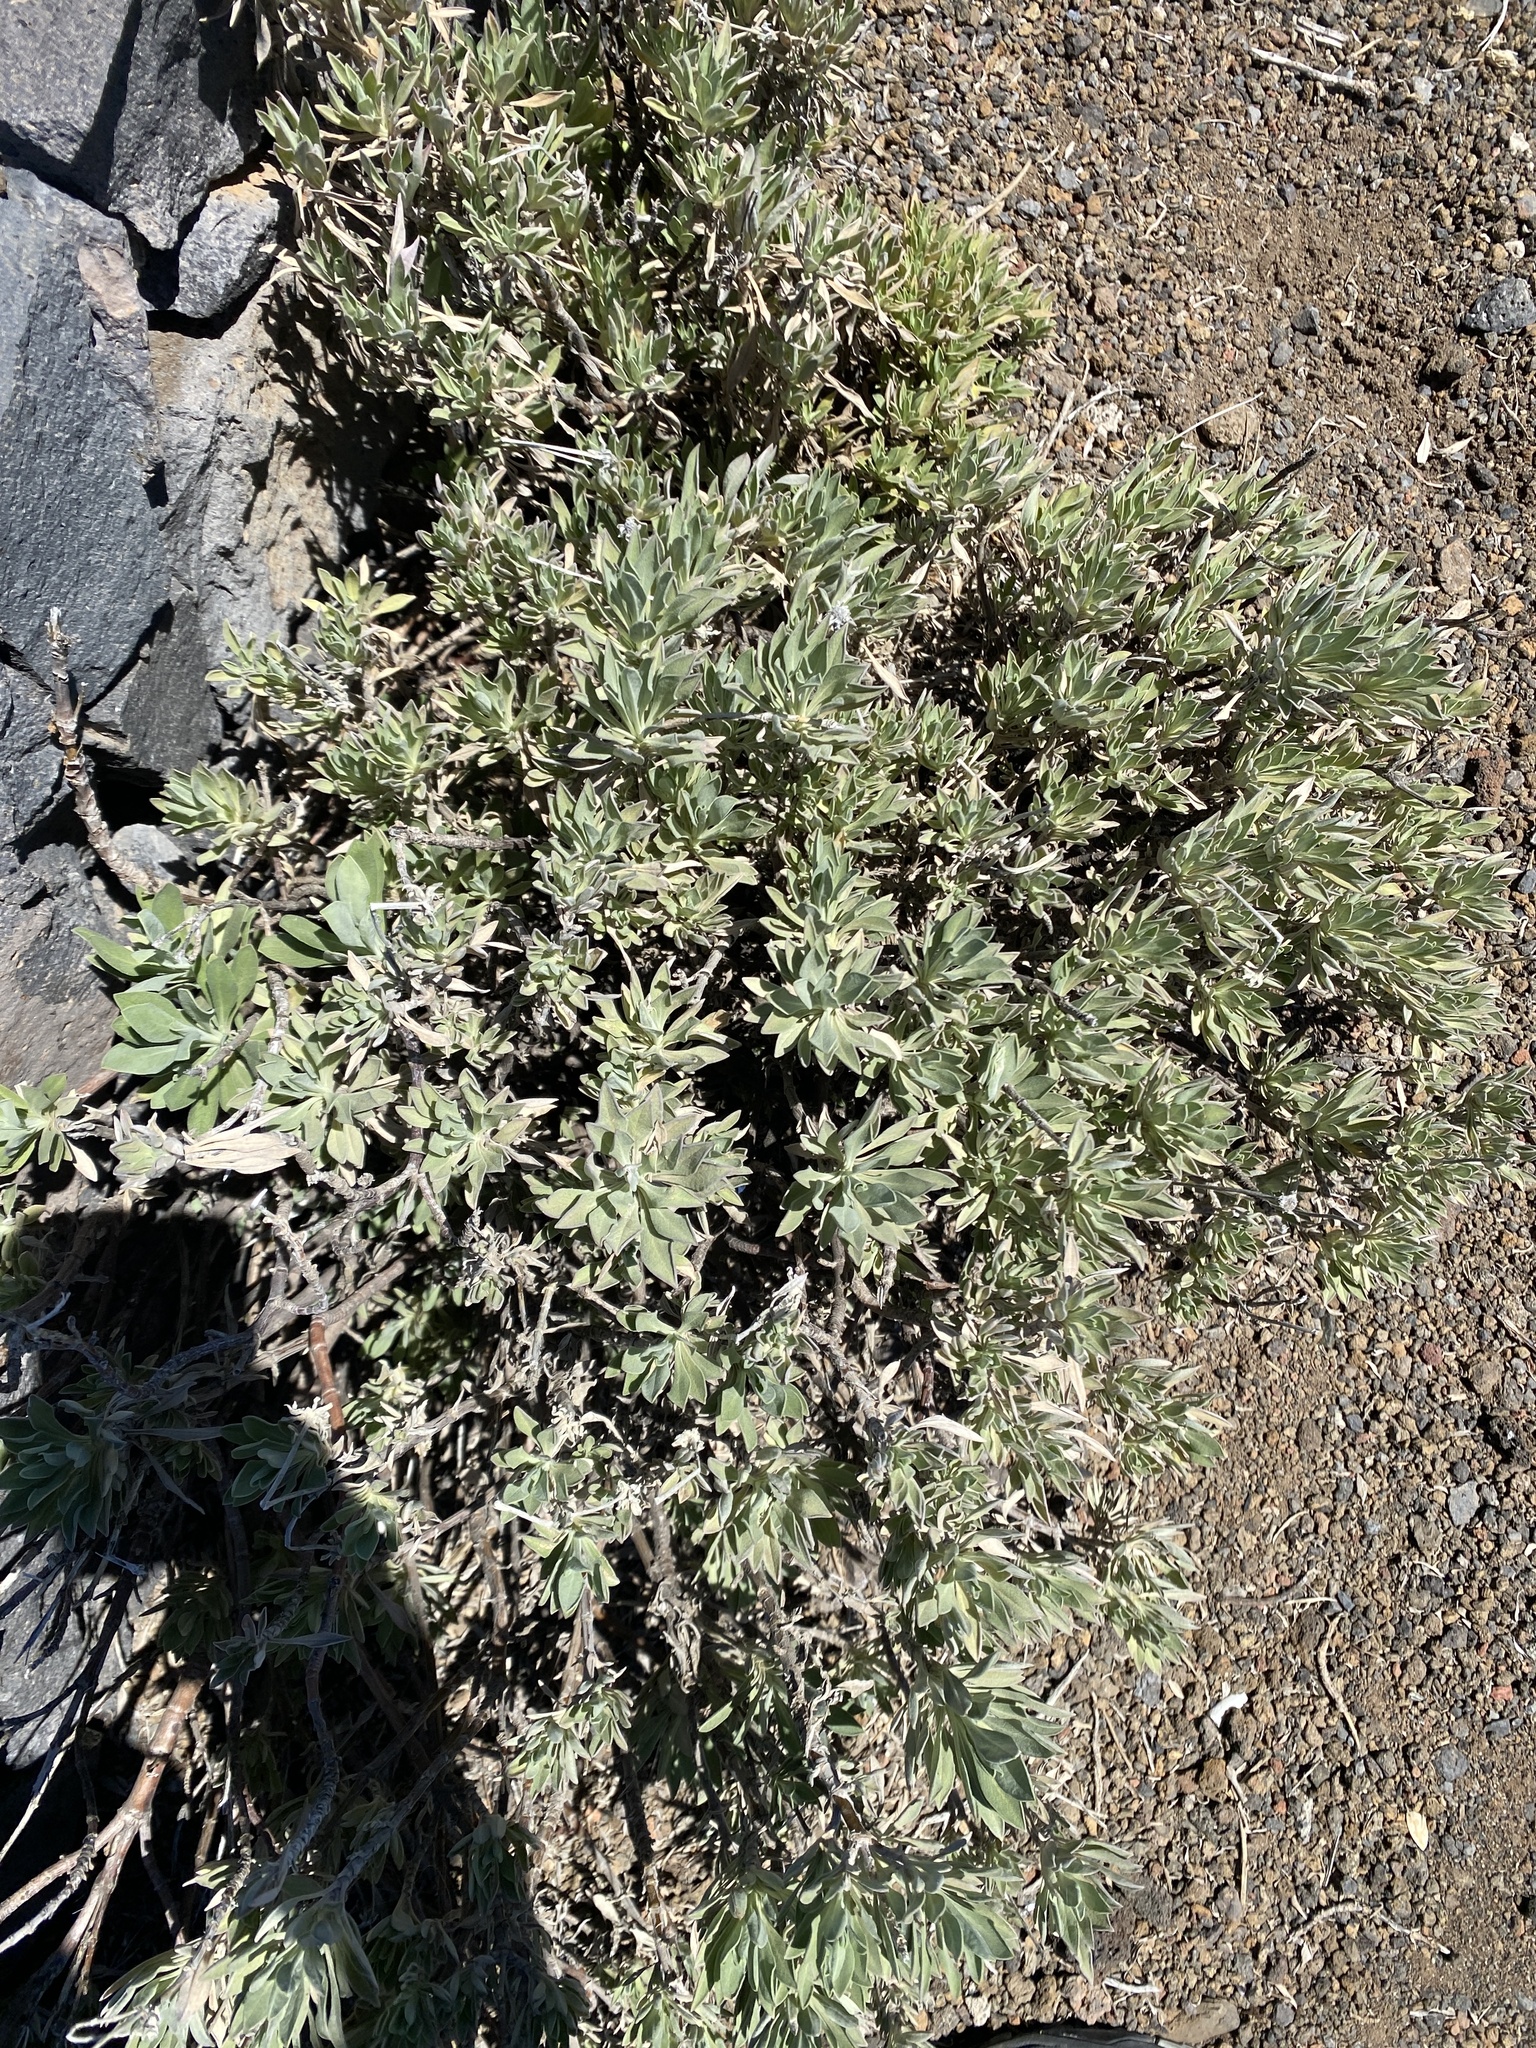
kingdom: Plantae
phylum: Tracheophyta
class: Magnoliopsida
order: Dipsacales
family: Caprifoliaceae
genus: Pterocephalus
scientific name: Pterocephalus lasiospermus
